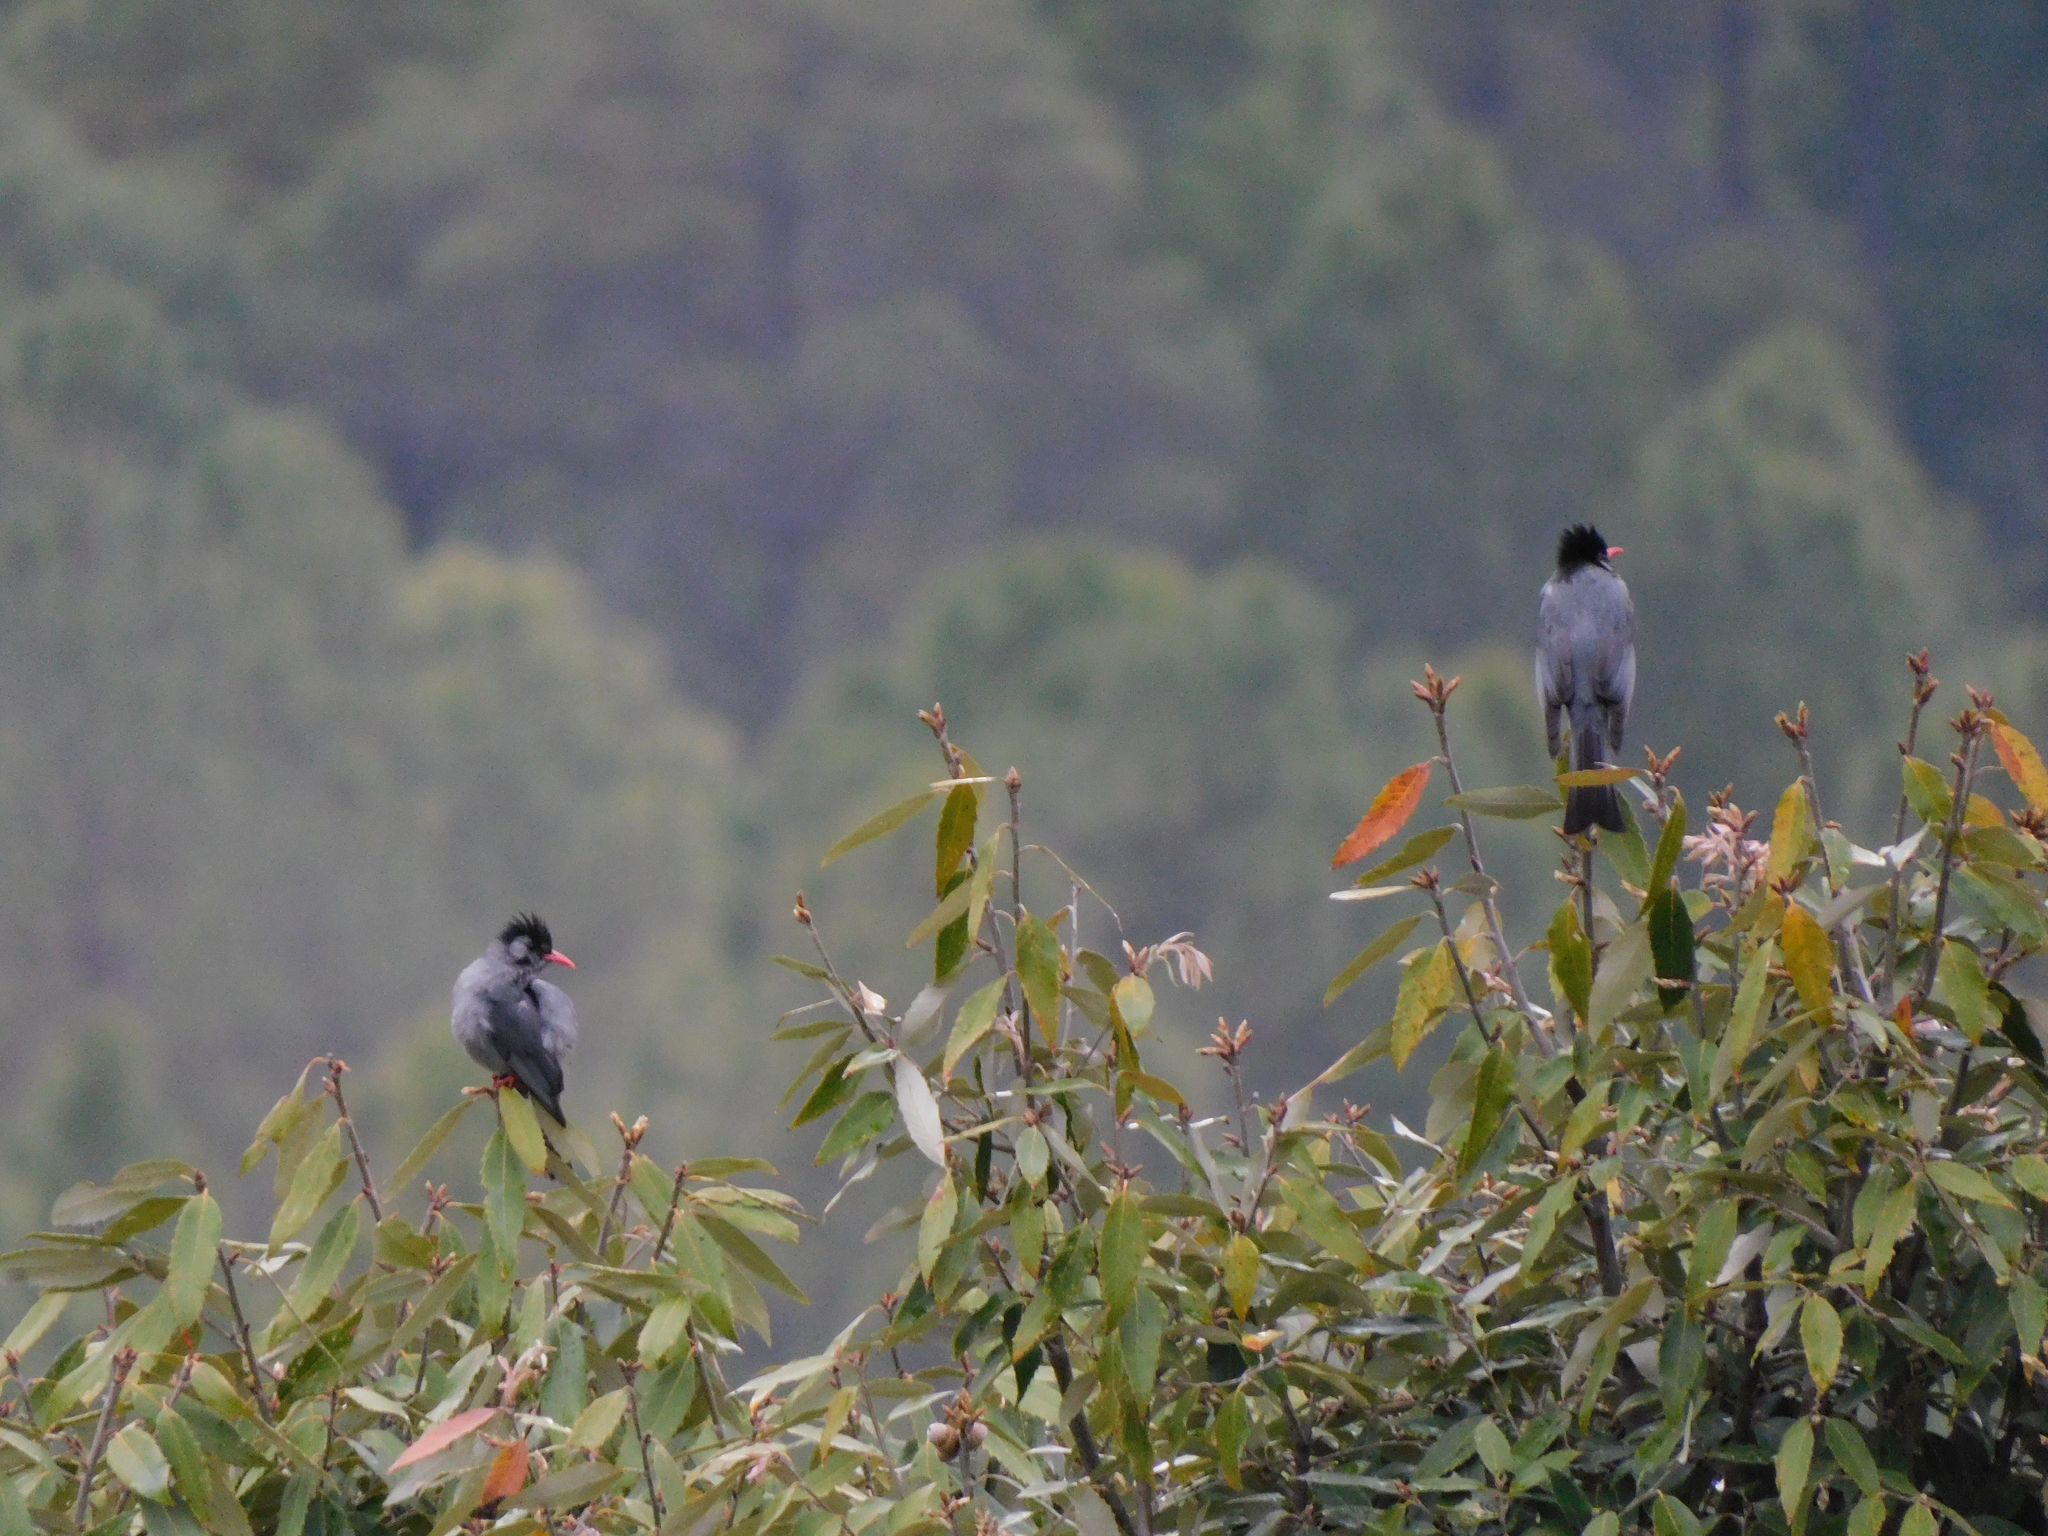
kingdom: Animalia
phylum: Chordata
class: Aves
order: Passeriformes
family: Pycnonotidae
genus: Hypsipetes
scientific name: Hypsipetes leucocephalus
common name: Black bulbul
